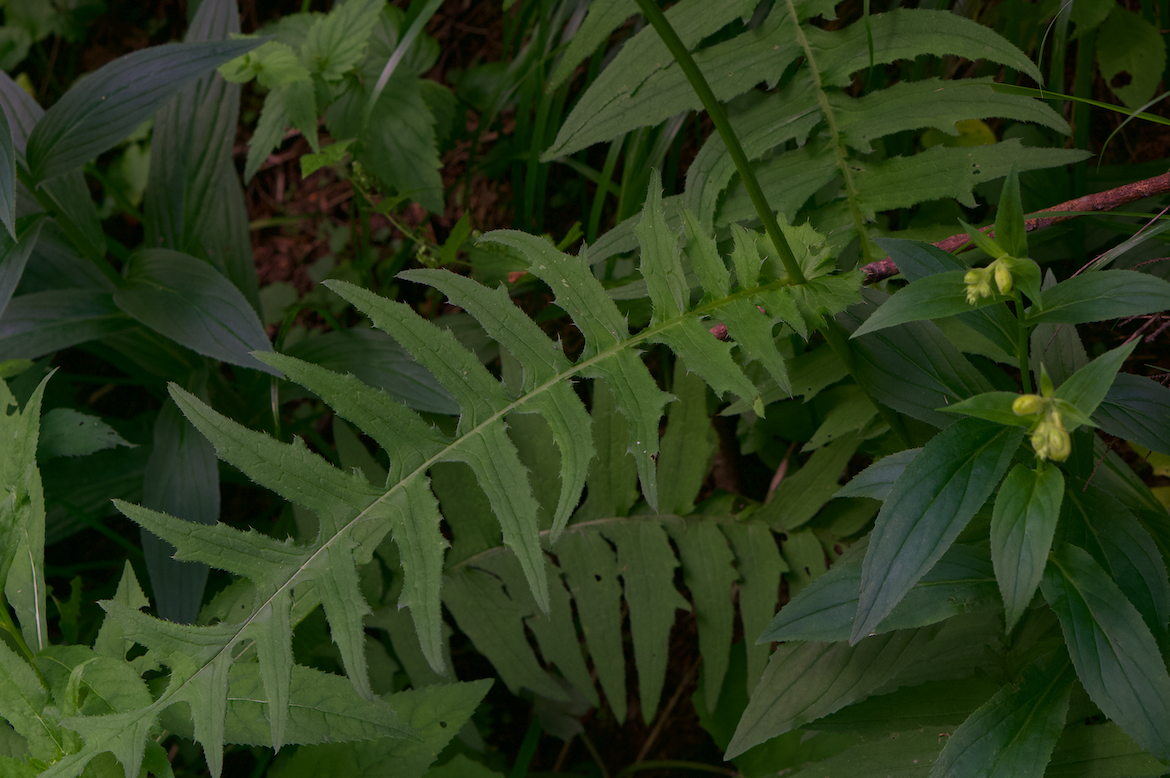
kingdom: Plantae
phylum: Tracheophyta
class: Magnoliopsida
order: Asterales
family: Asteraceae
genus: Cirsium
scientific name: Cirsium erisithales
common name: Yellow thistle
